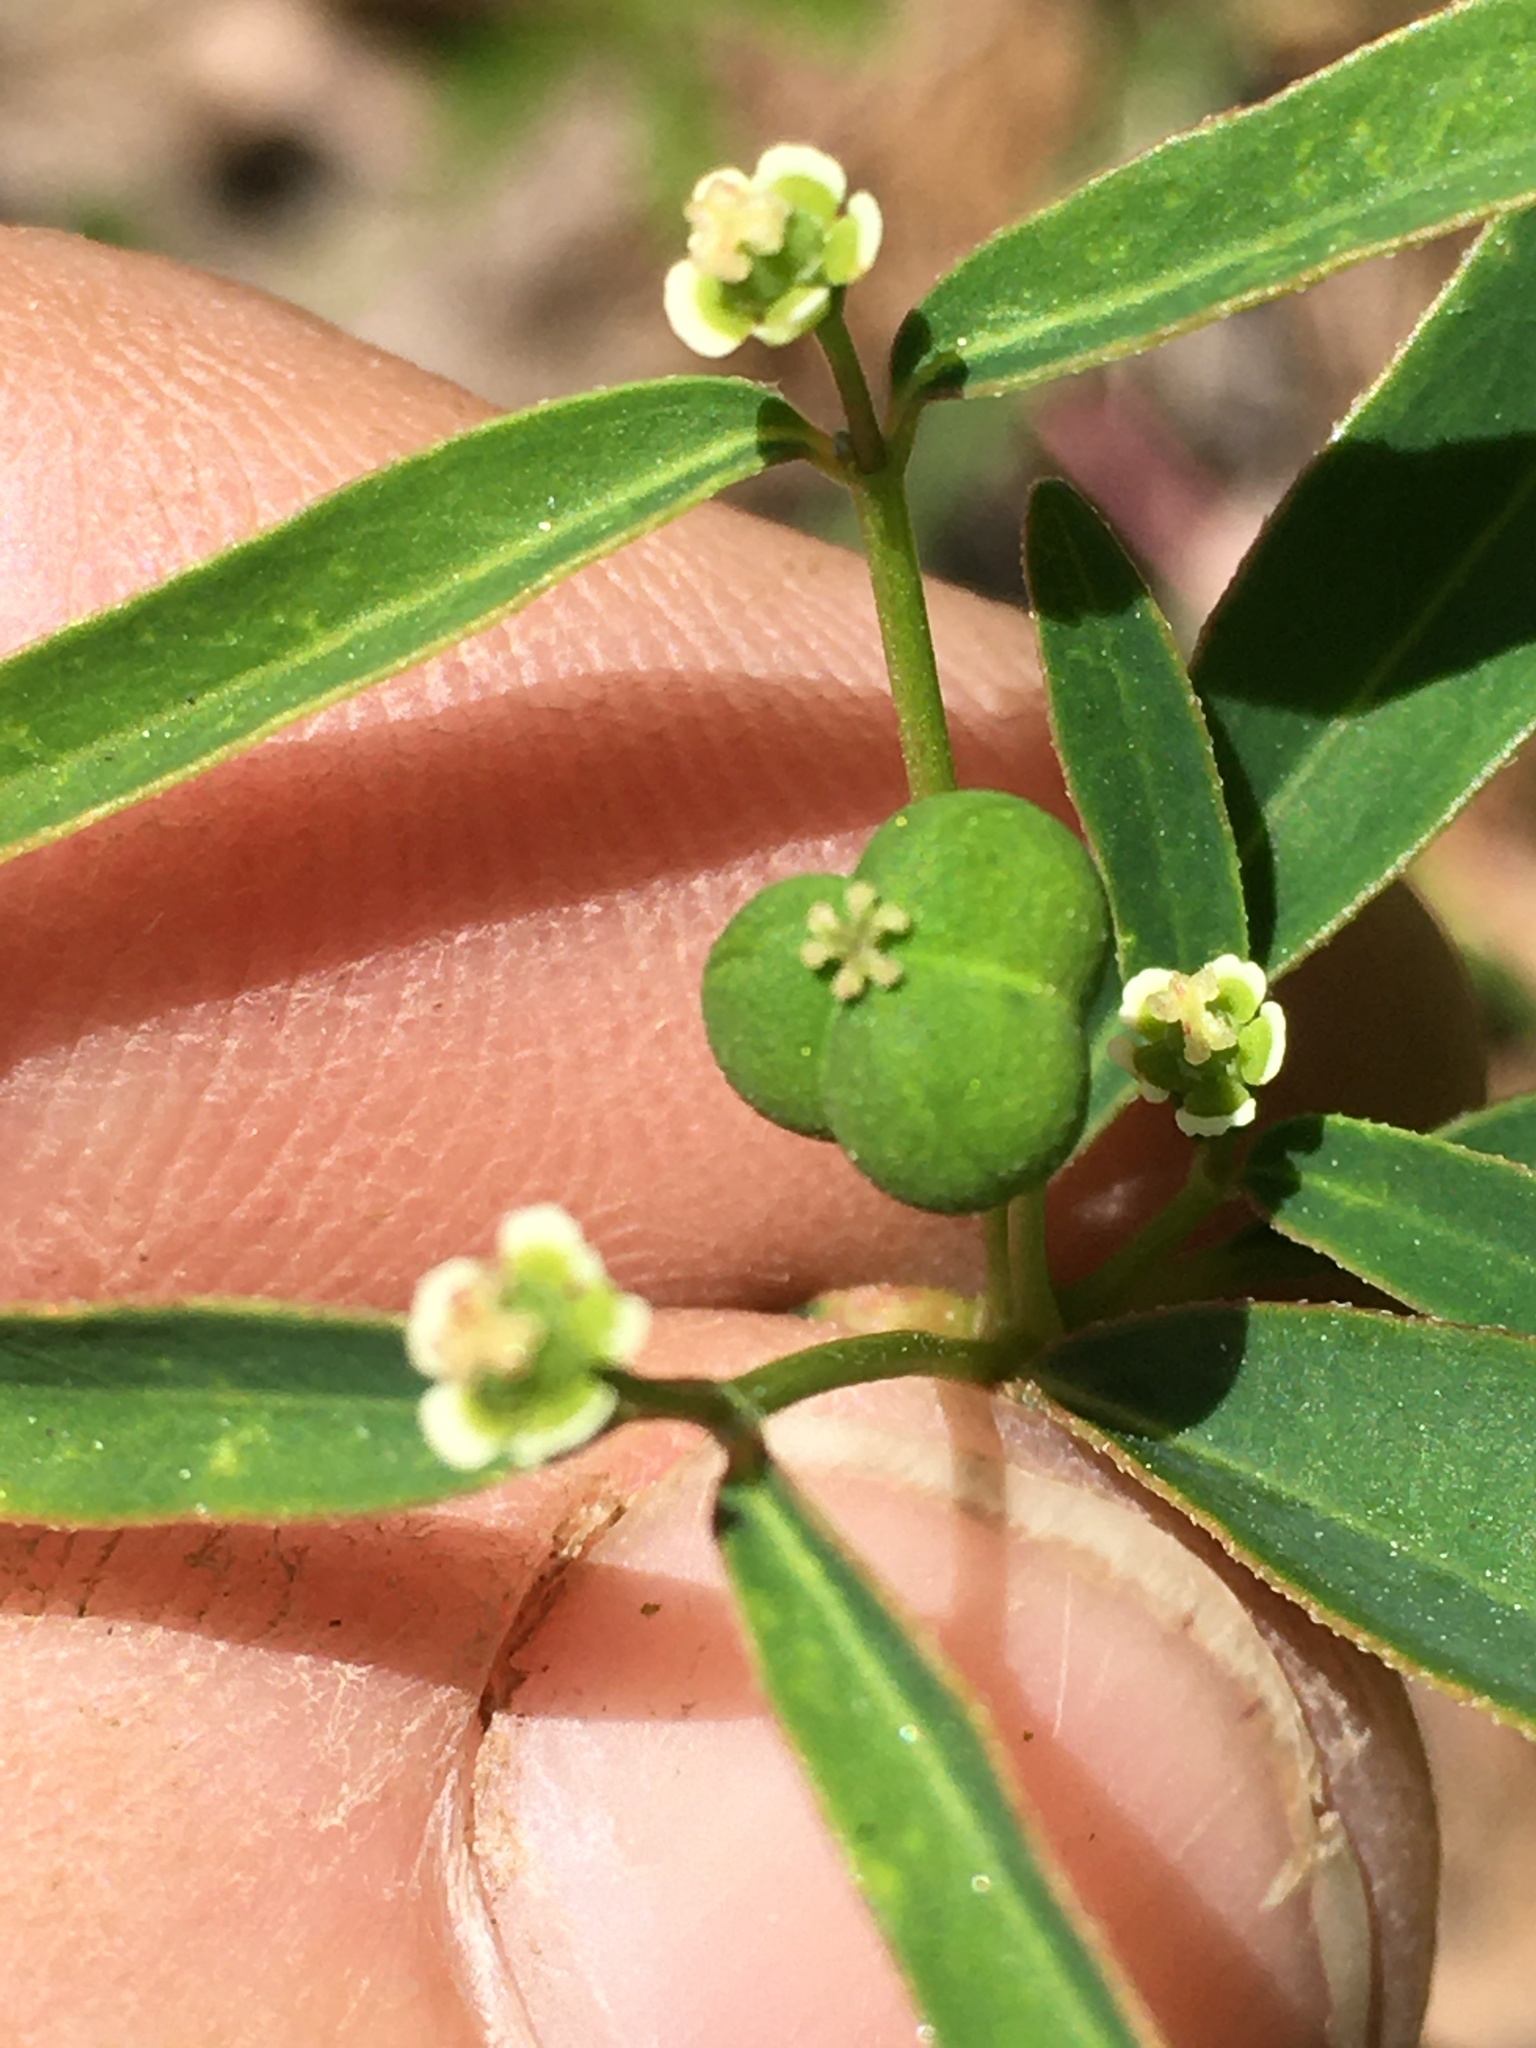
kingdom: Plantae
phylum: Tracheophyta
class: Magnoliopsida
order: Malpighiales
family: Euphorbiaceae
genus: Euphorbia
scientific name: Euphorbia curtisii
